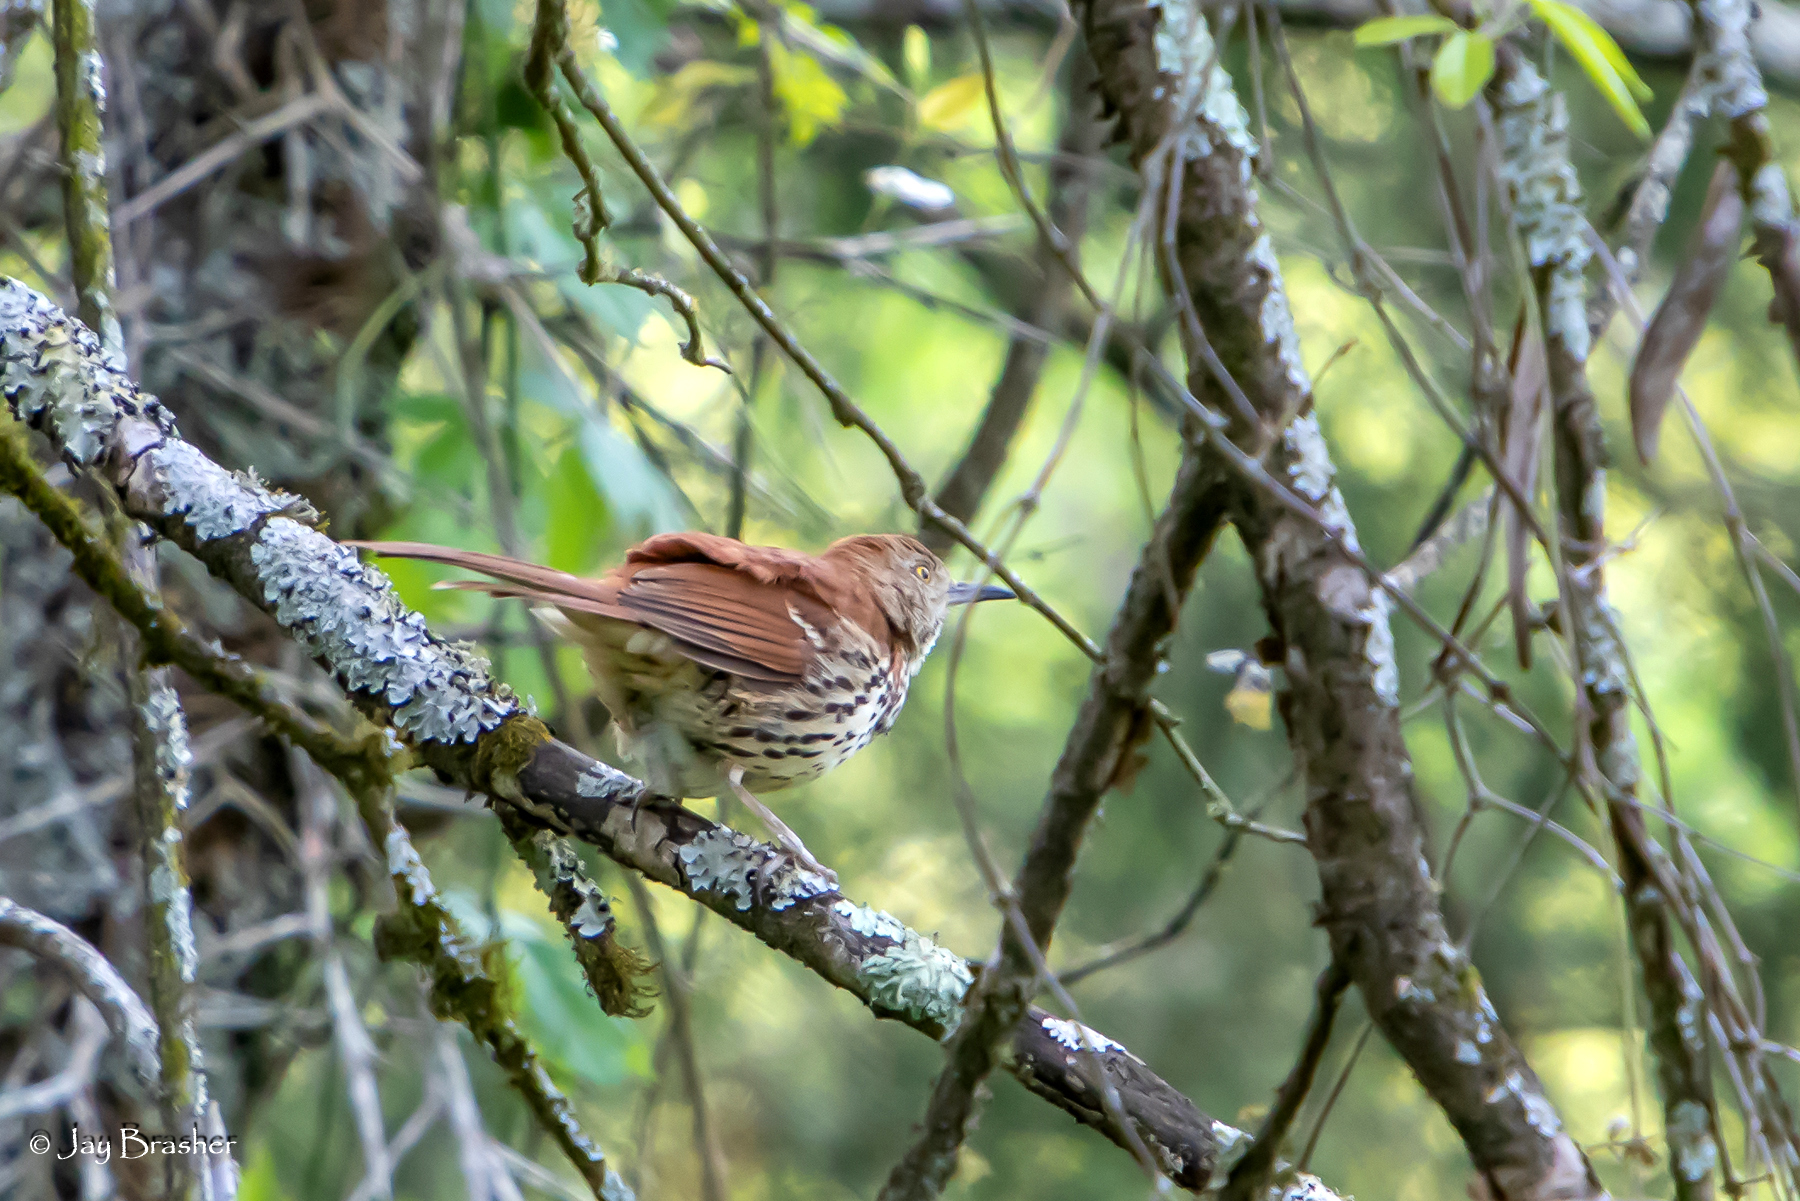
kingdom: Animalia
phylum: Chordata
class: Aves
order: Passeriformes
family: Mimidae
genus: Toxostoma
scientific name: Toxostoma rufum
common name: Brown thrasher
